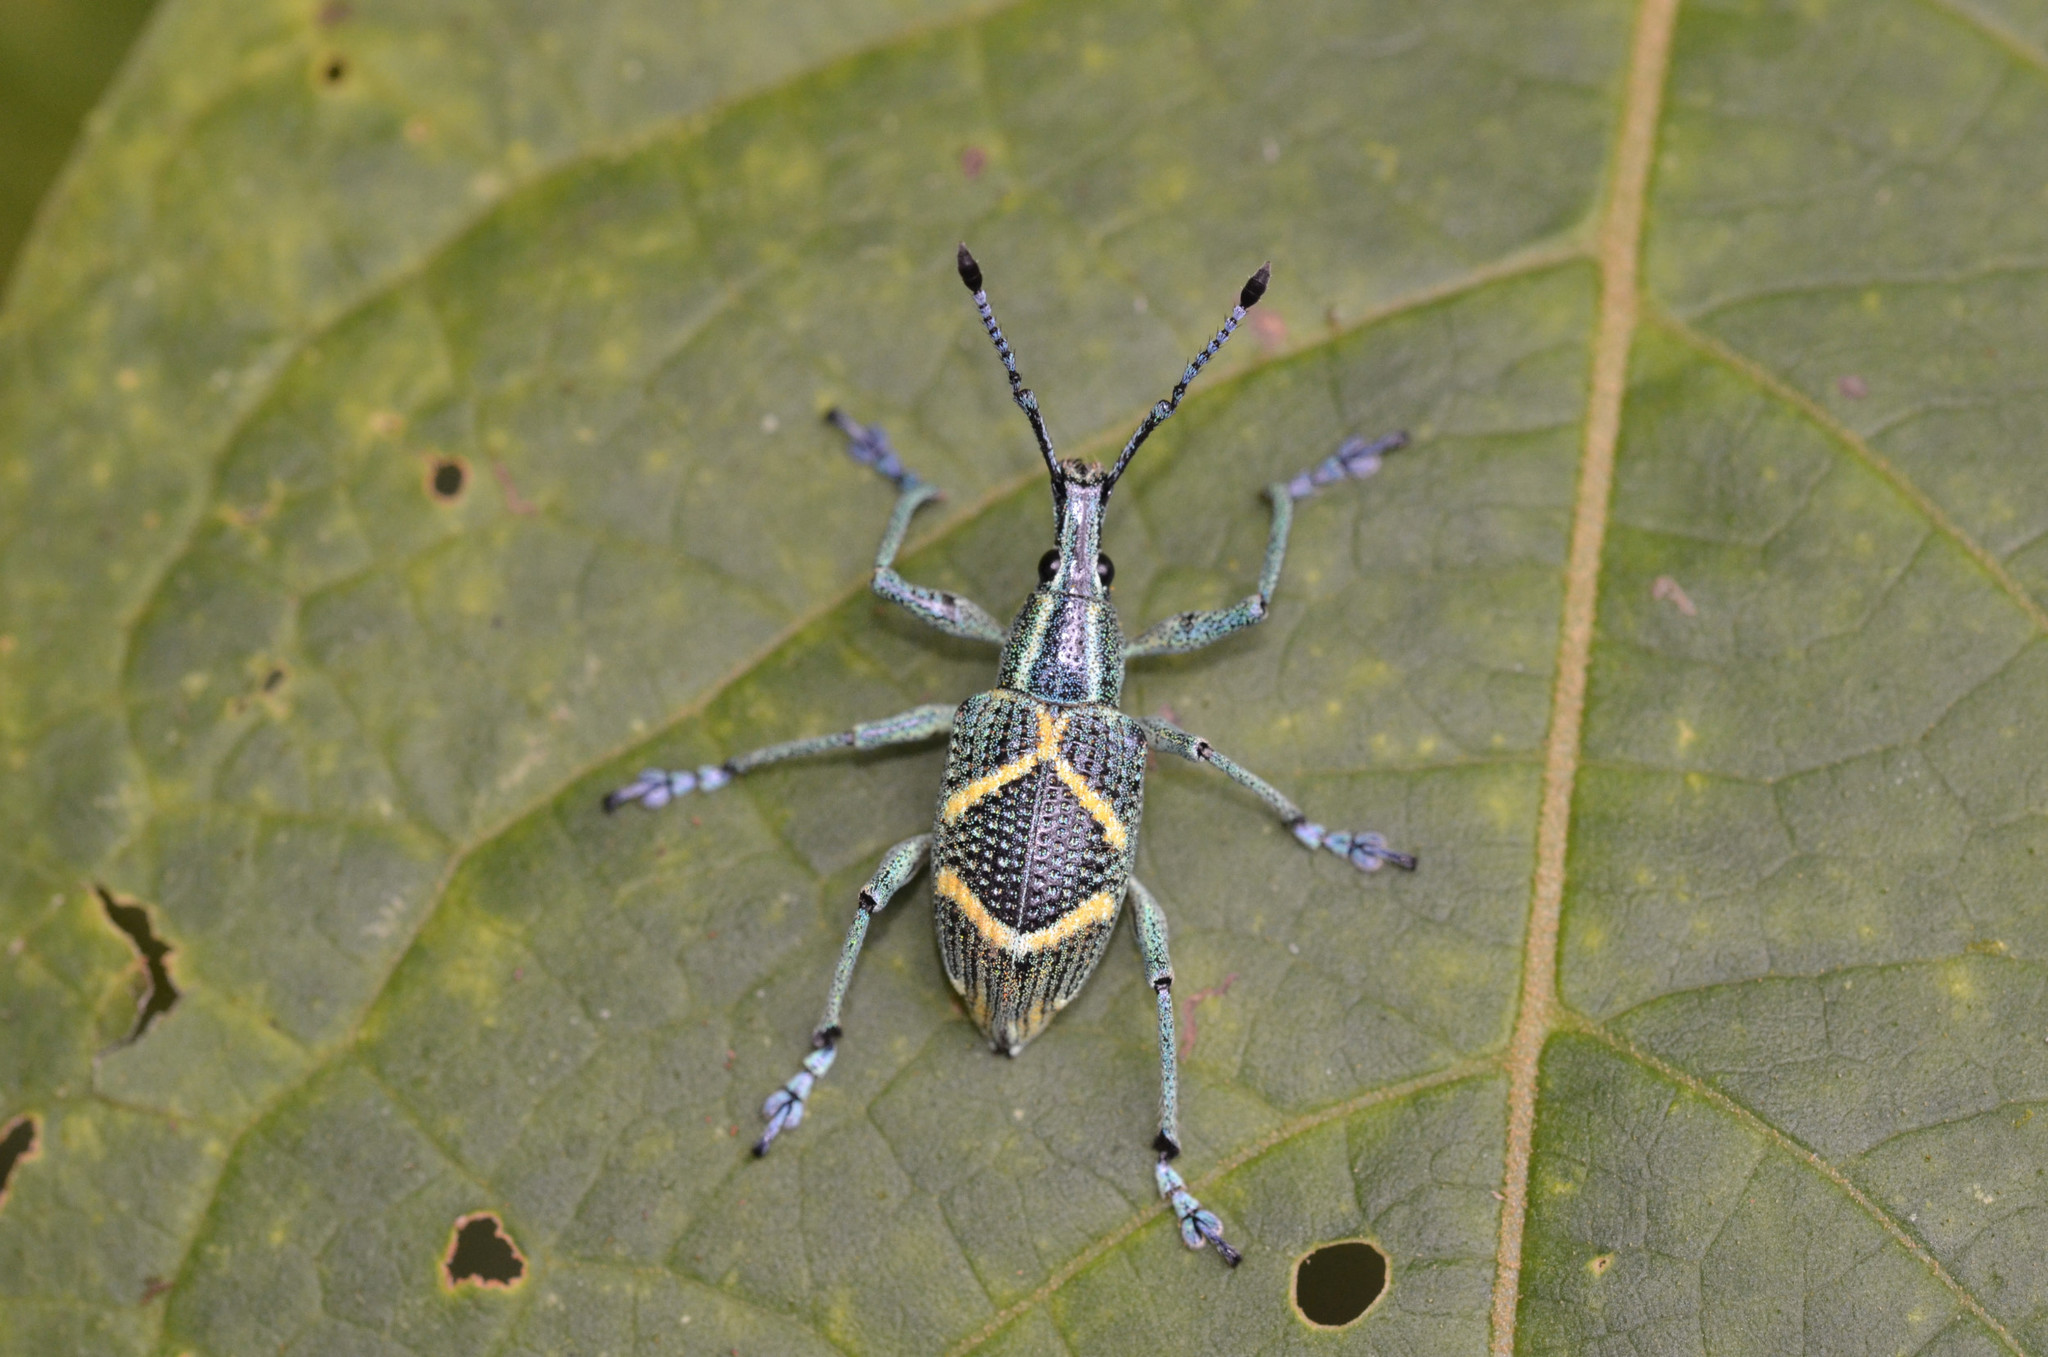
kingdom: Animalia
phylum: Arthropoda
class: Insecta
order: Coleoptera
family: Curculionidae
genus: Exophthalmus
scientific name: Exophthalmus parentheticus
